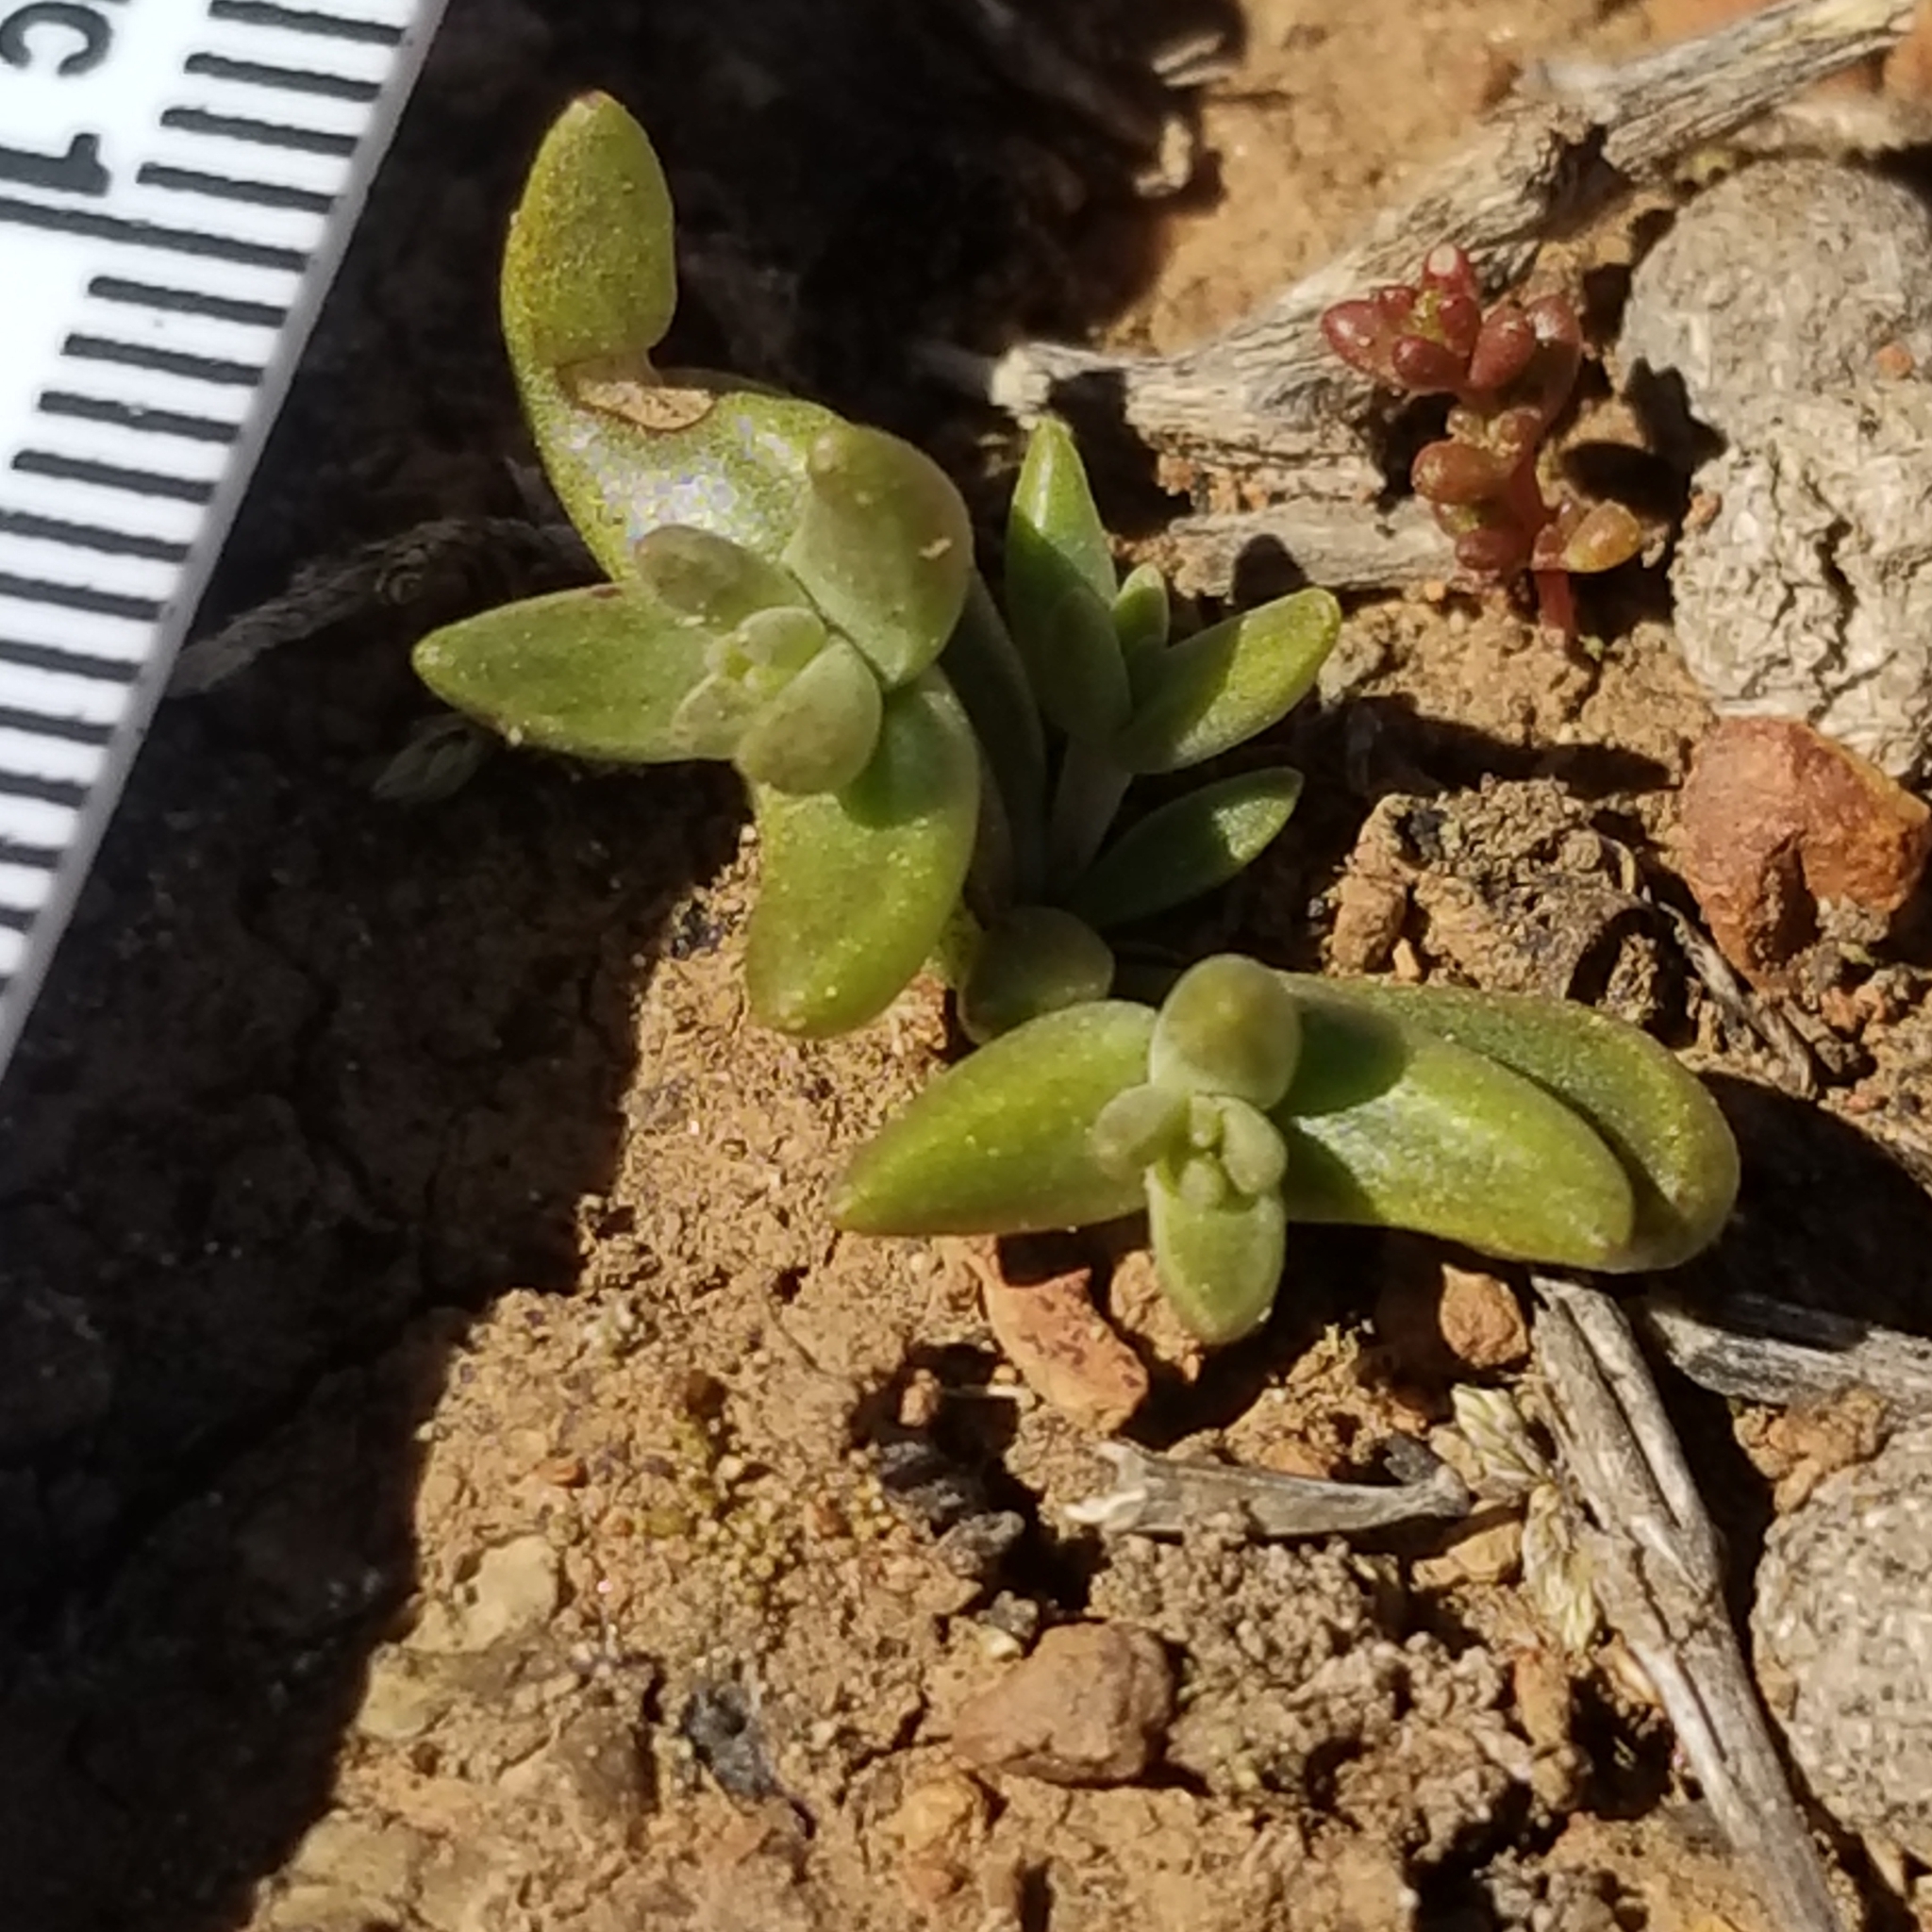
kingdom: Plantae
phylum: Tracheophyta
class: Magnoliopsida
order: Saxifragales
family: Crassulaceae
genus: Dudleya
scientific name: Dudleya variegata
